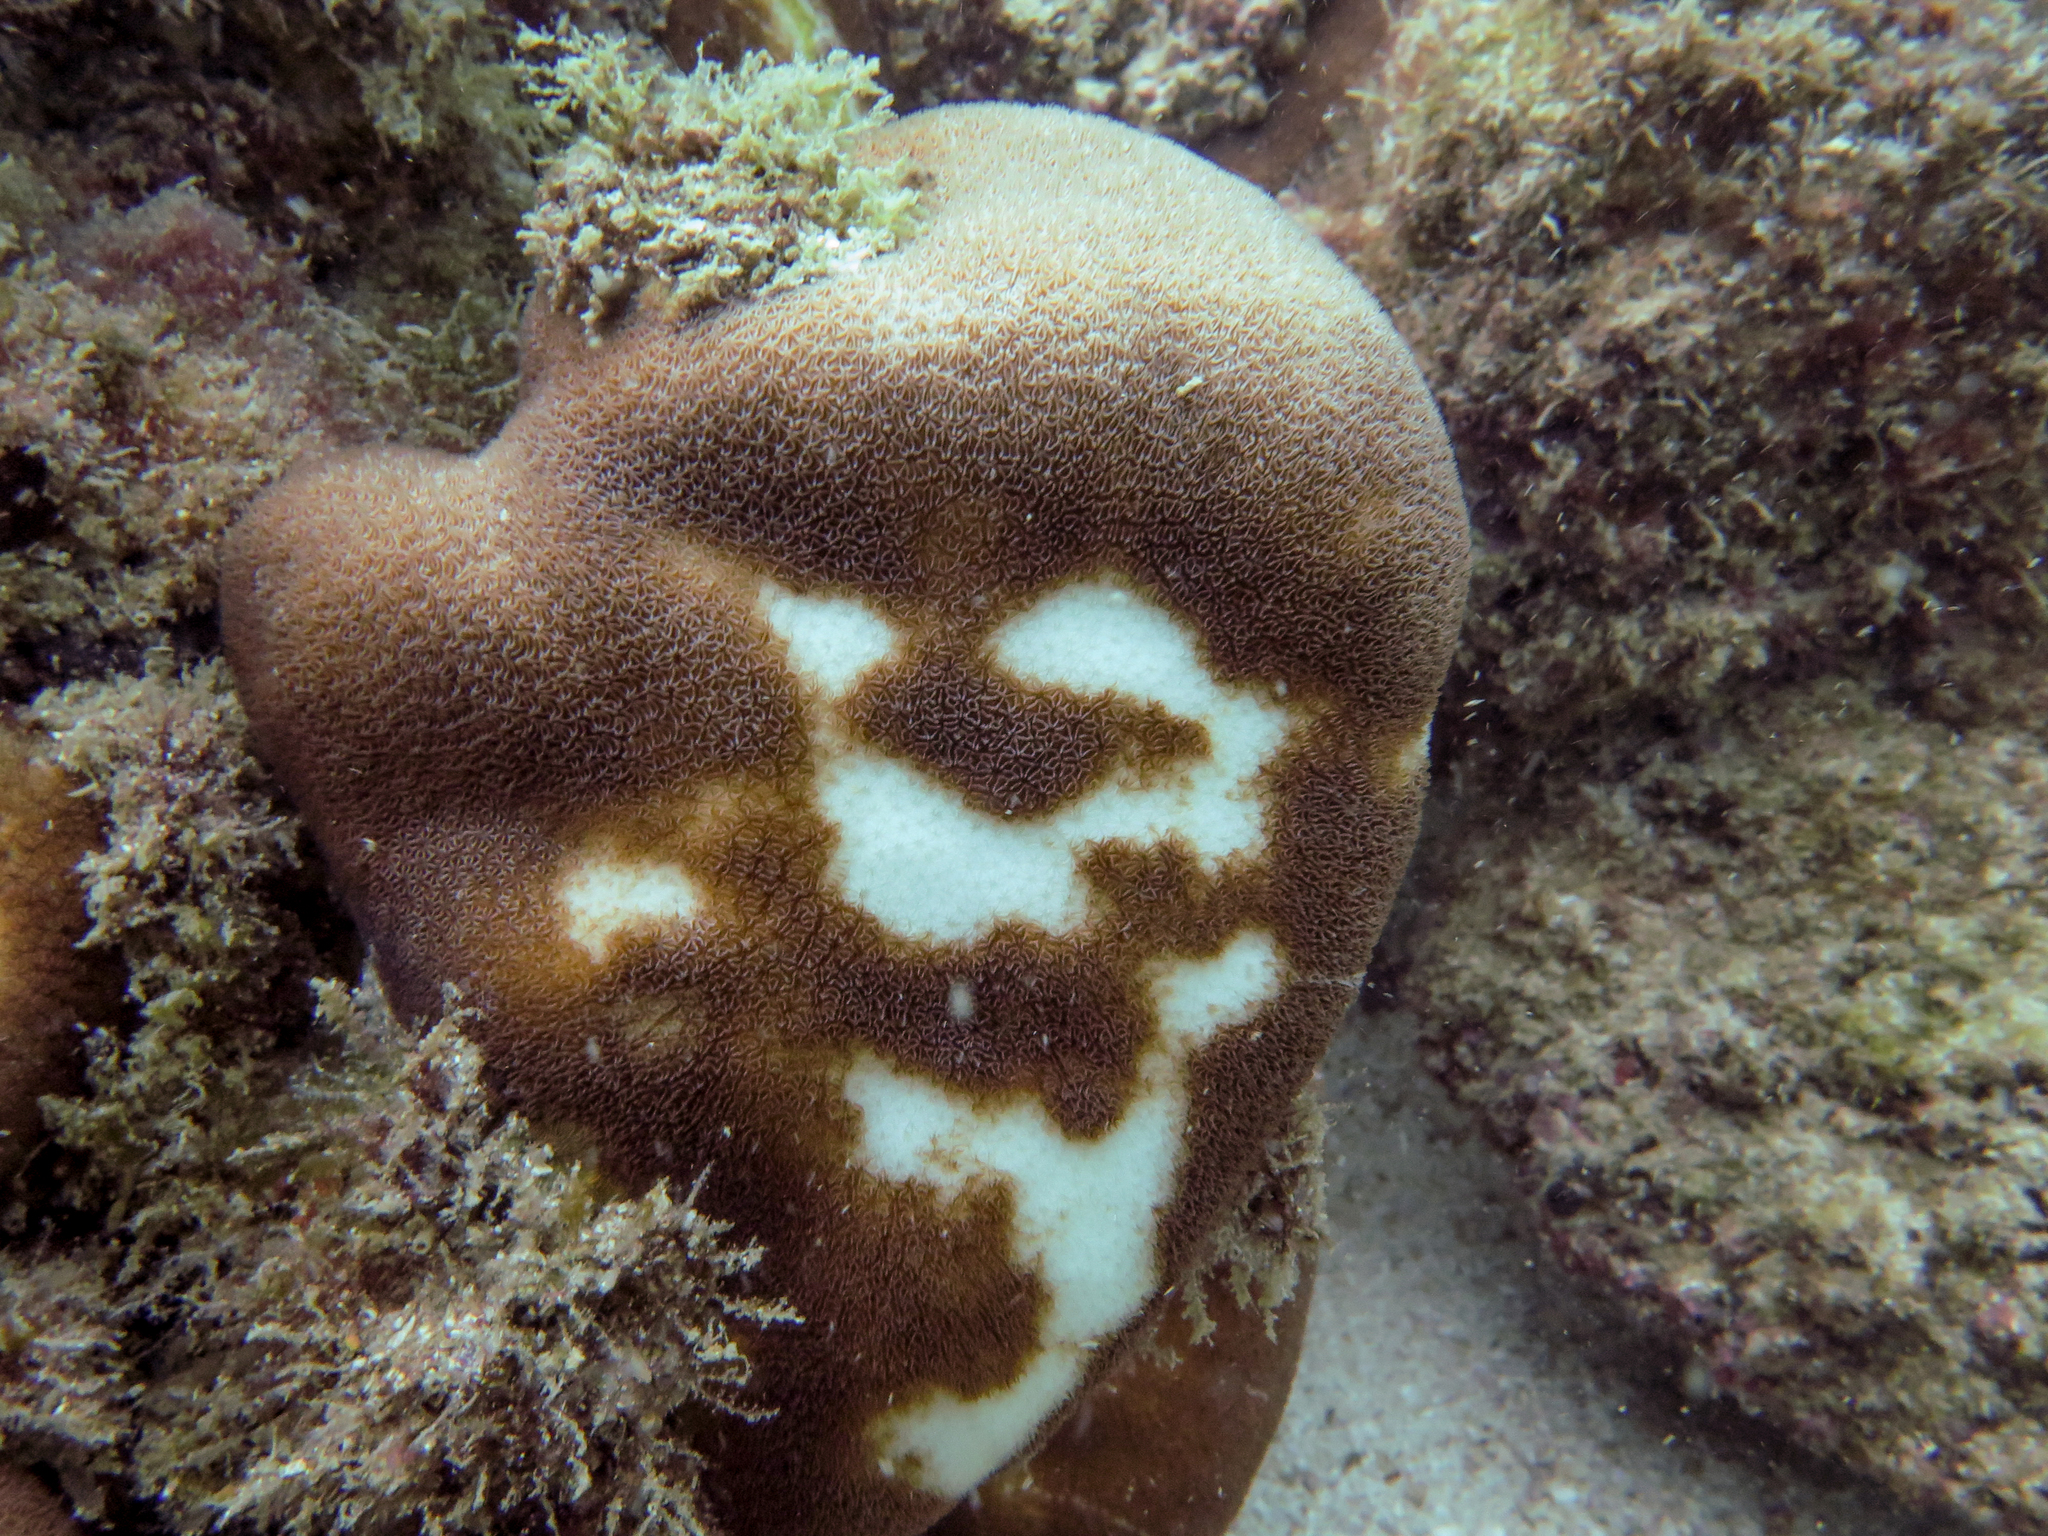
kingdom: Animalia
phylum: Cnidaria
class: Anthozoa
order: Scleractinia
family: Agariciidae
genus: Pavona
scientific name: Pavona gigantea
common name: Leaf coral
